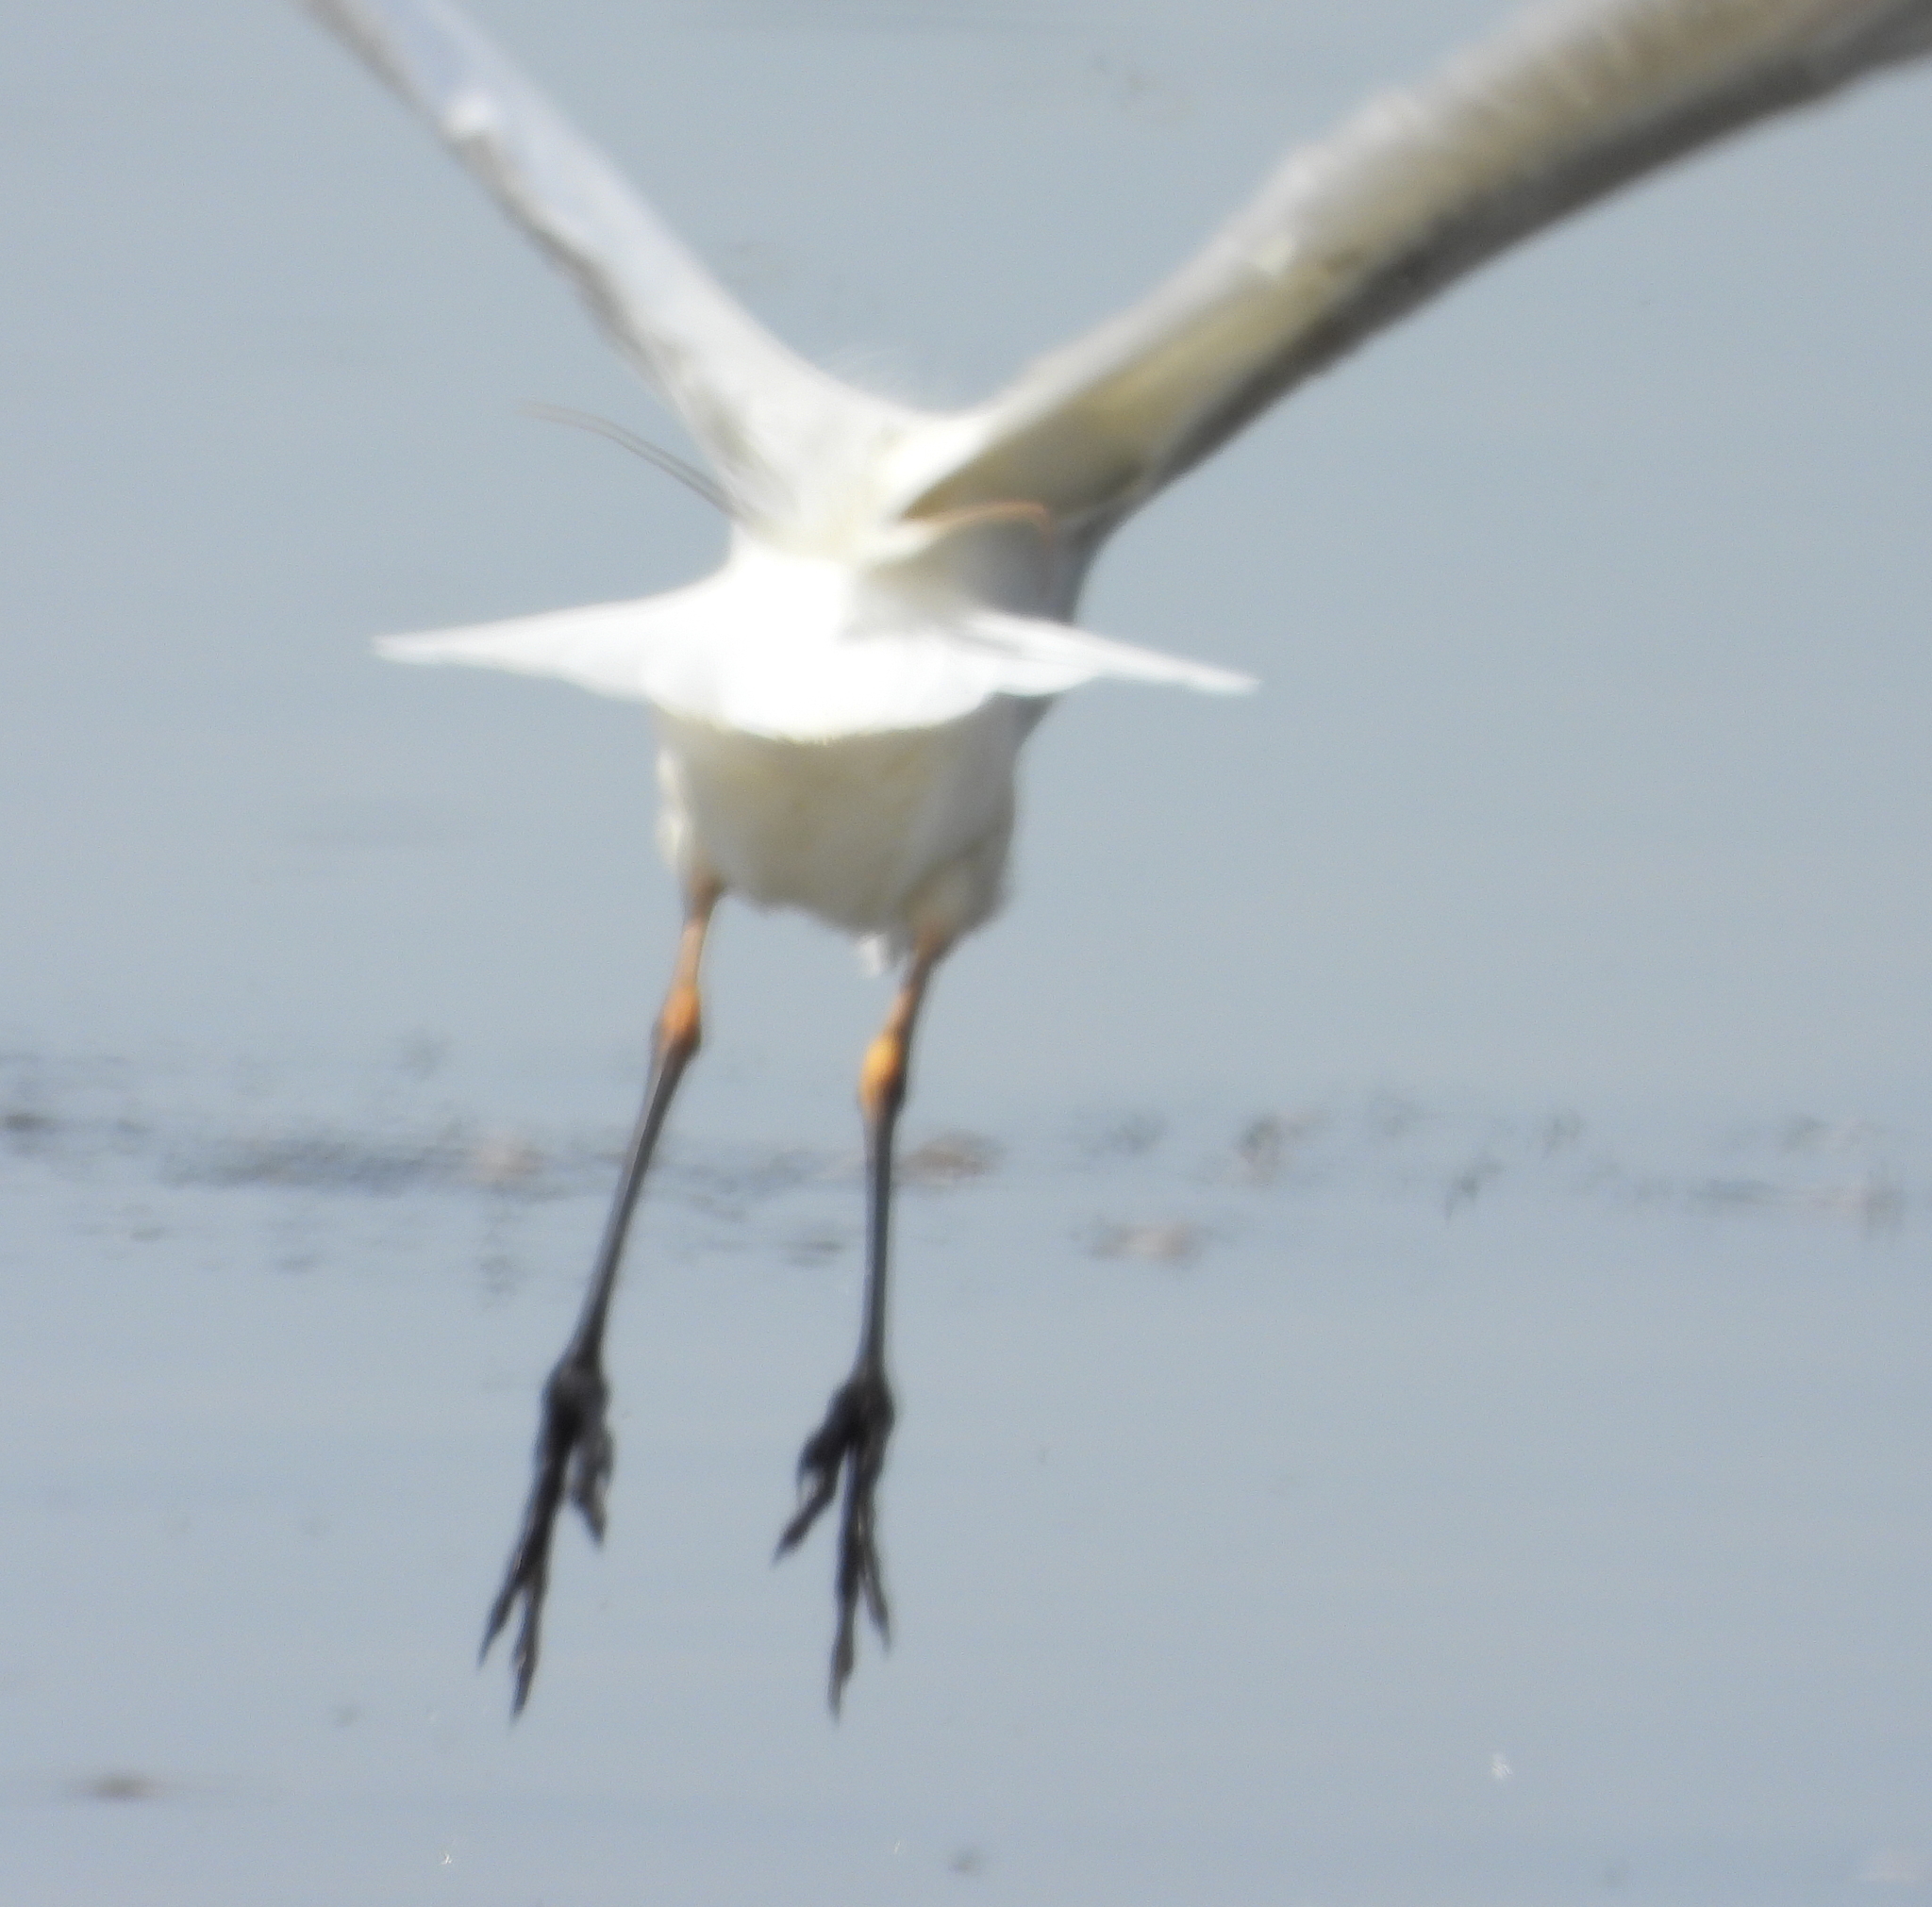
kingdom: Animalia
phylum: Chordata
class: Aves
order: Pelecaniformes
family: Ardeidae
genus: Egretta
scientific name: Egretta intermedia
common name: Intermediate egret
